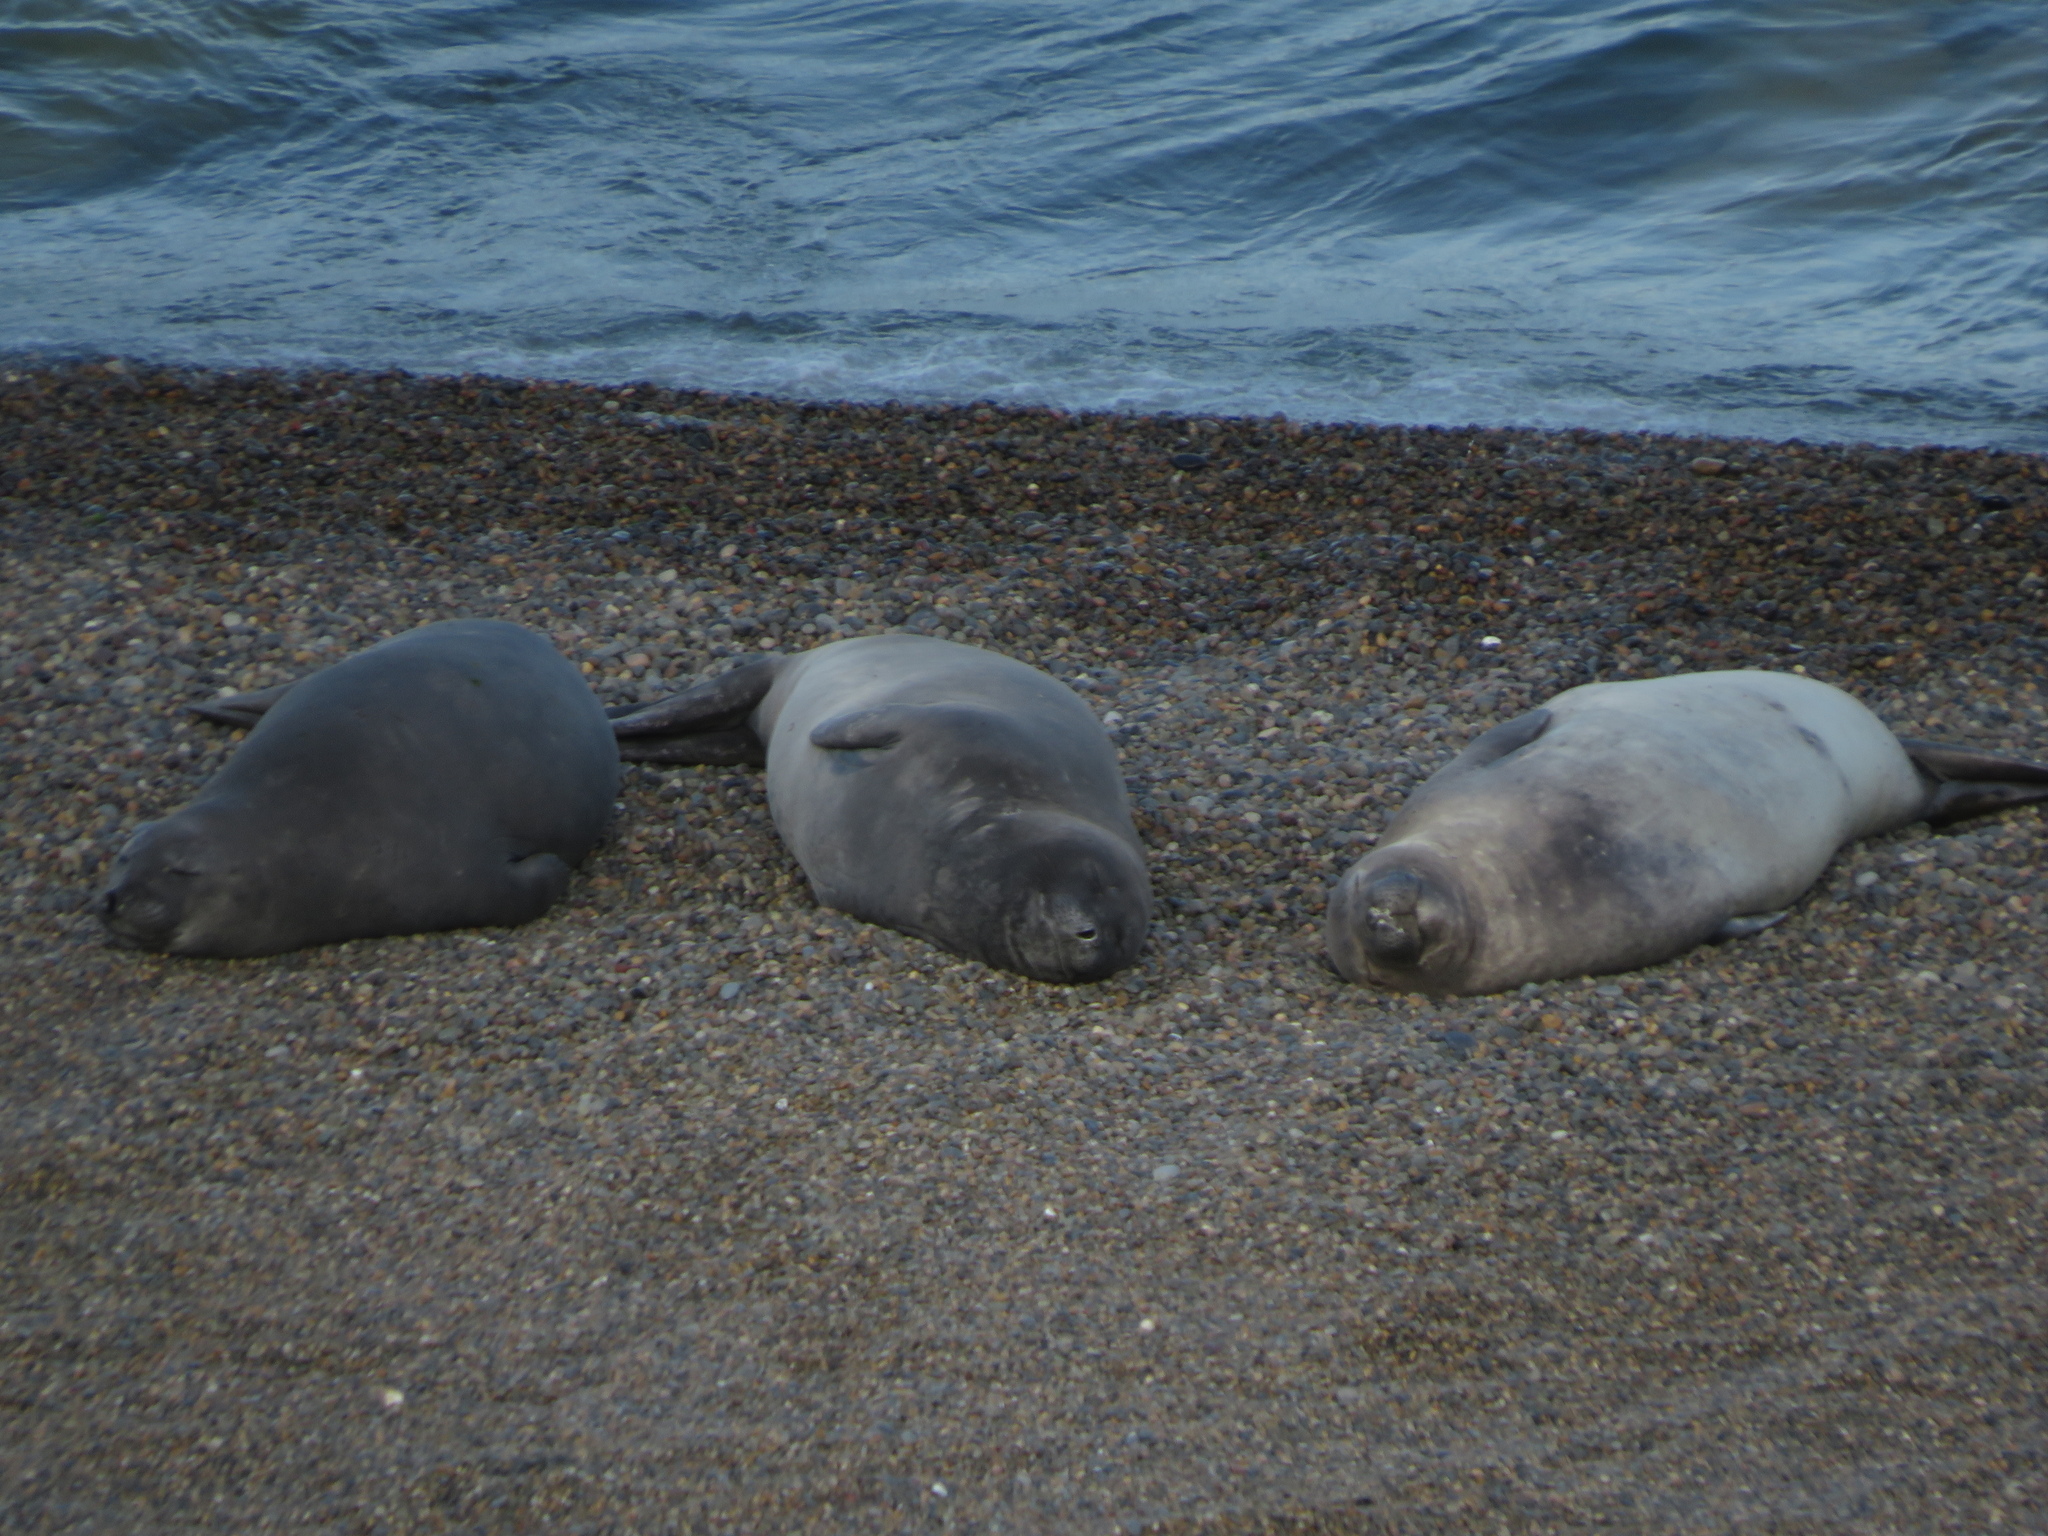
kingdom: Animalia
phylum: Chordata
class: Mammalia
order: Carnivora
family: Phocidae
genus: Mirounga
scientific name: Mirounga leonina
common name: Southern elephant seal
